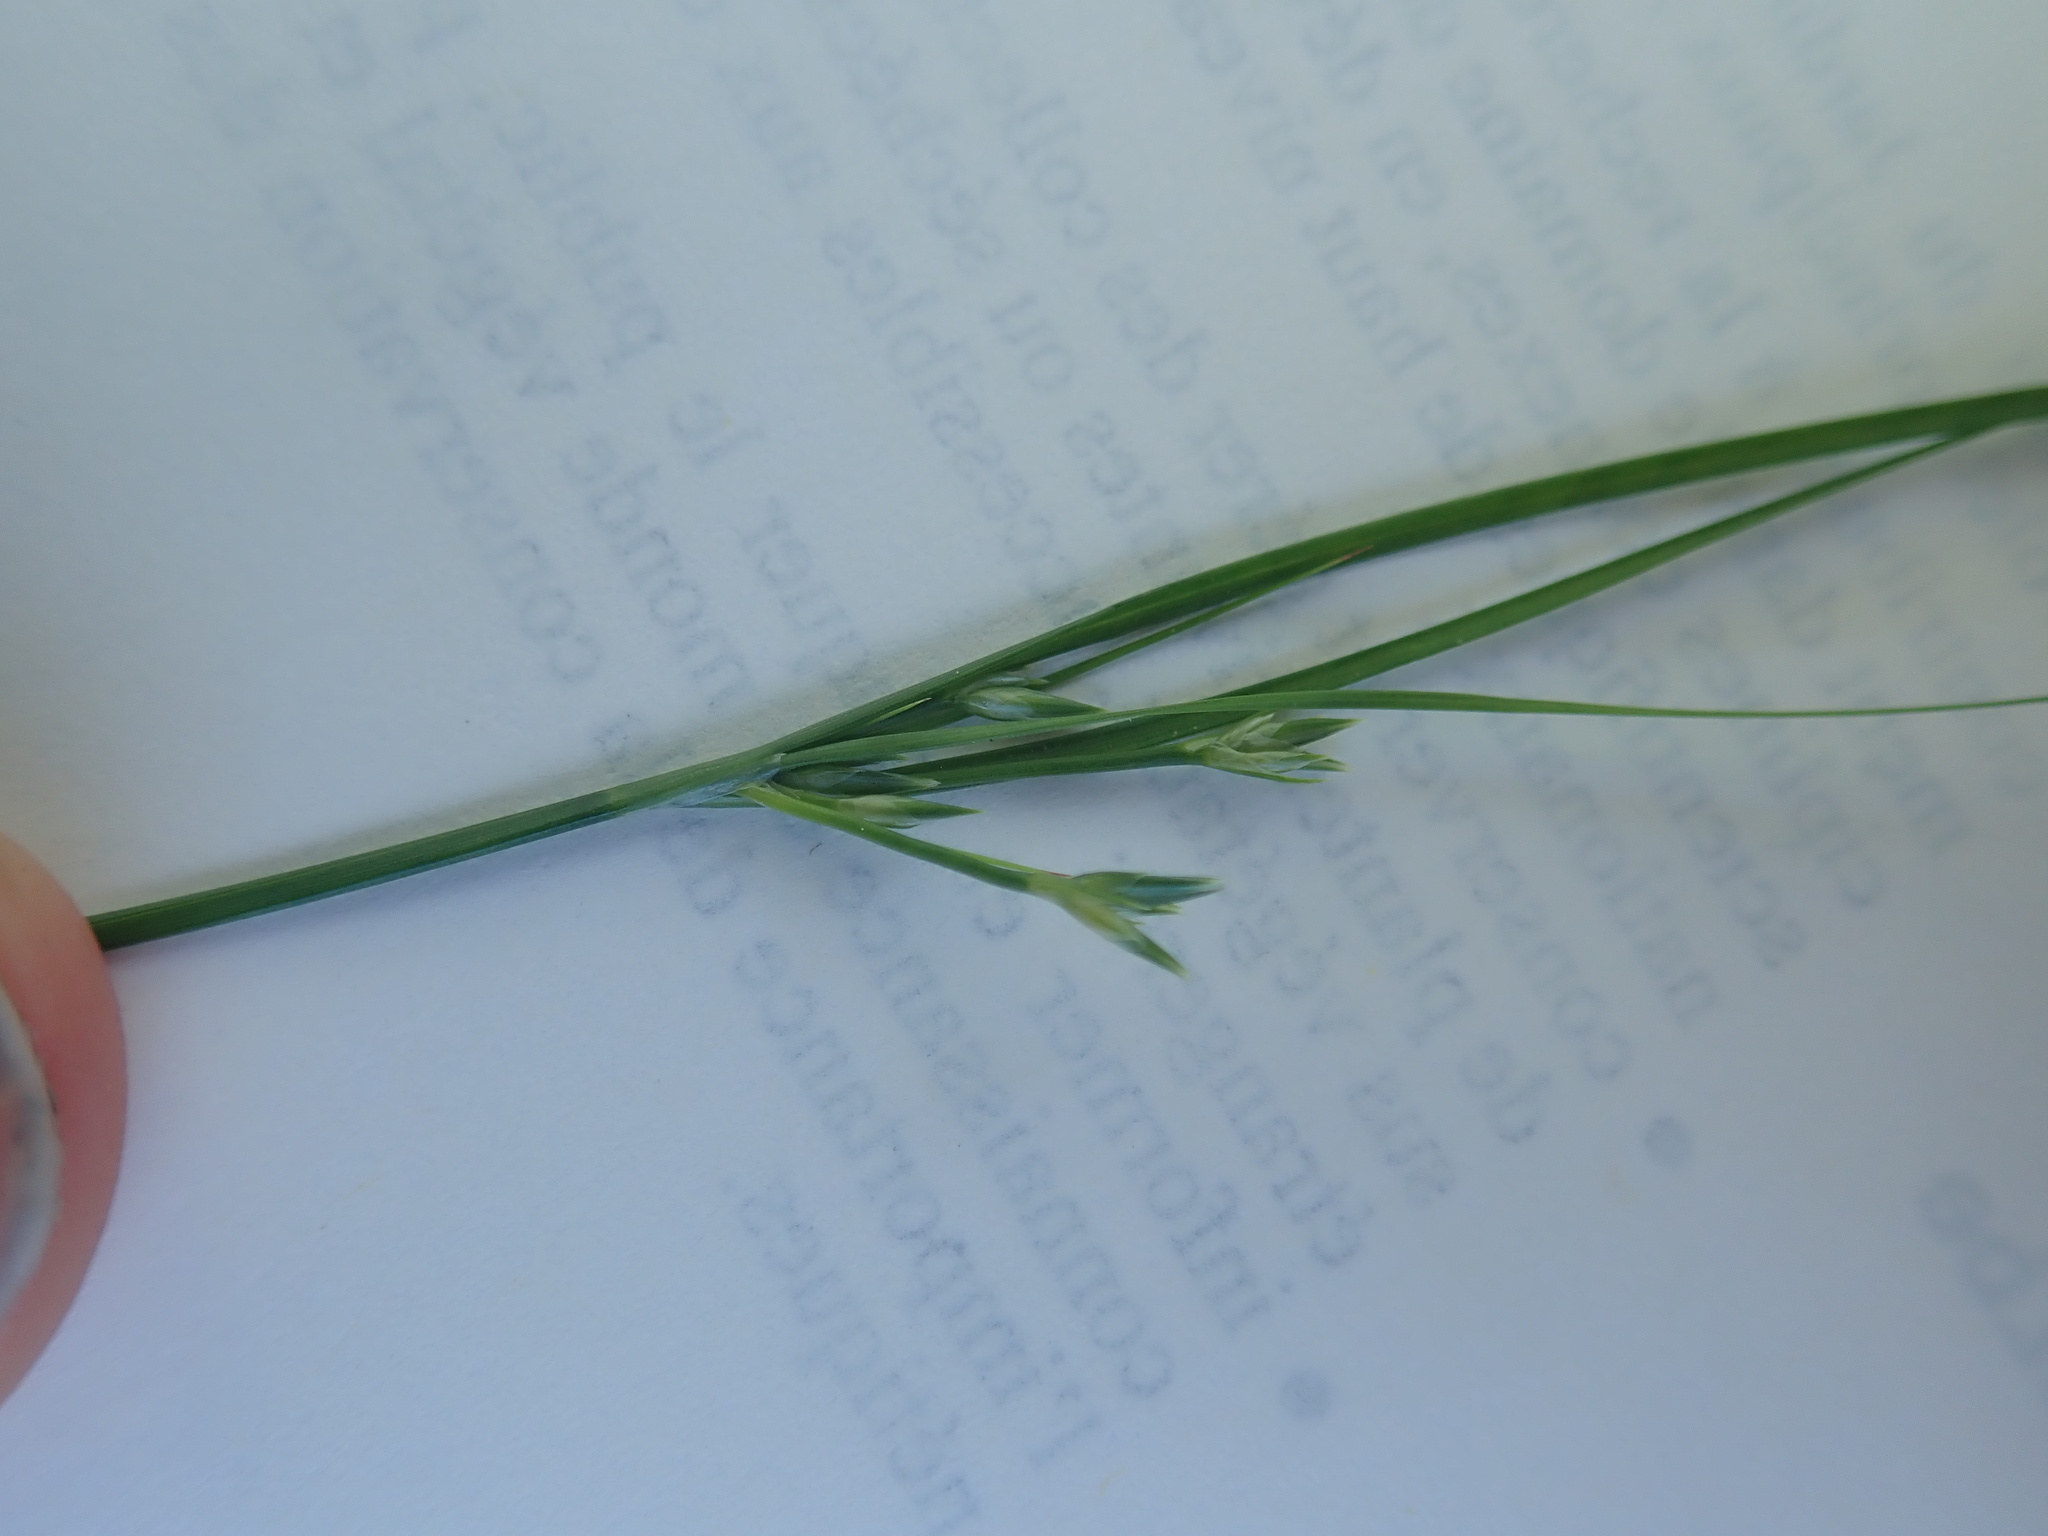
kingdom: Plantae
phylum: Tracheophyta
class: Liliopsida
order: Poales
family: Juncaceae
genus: Juncus
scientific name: Juncus tenuis
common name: Slender rush
